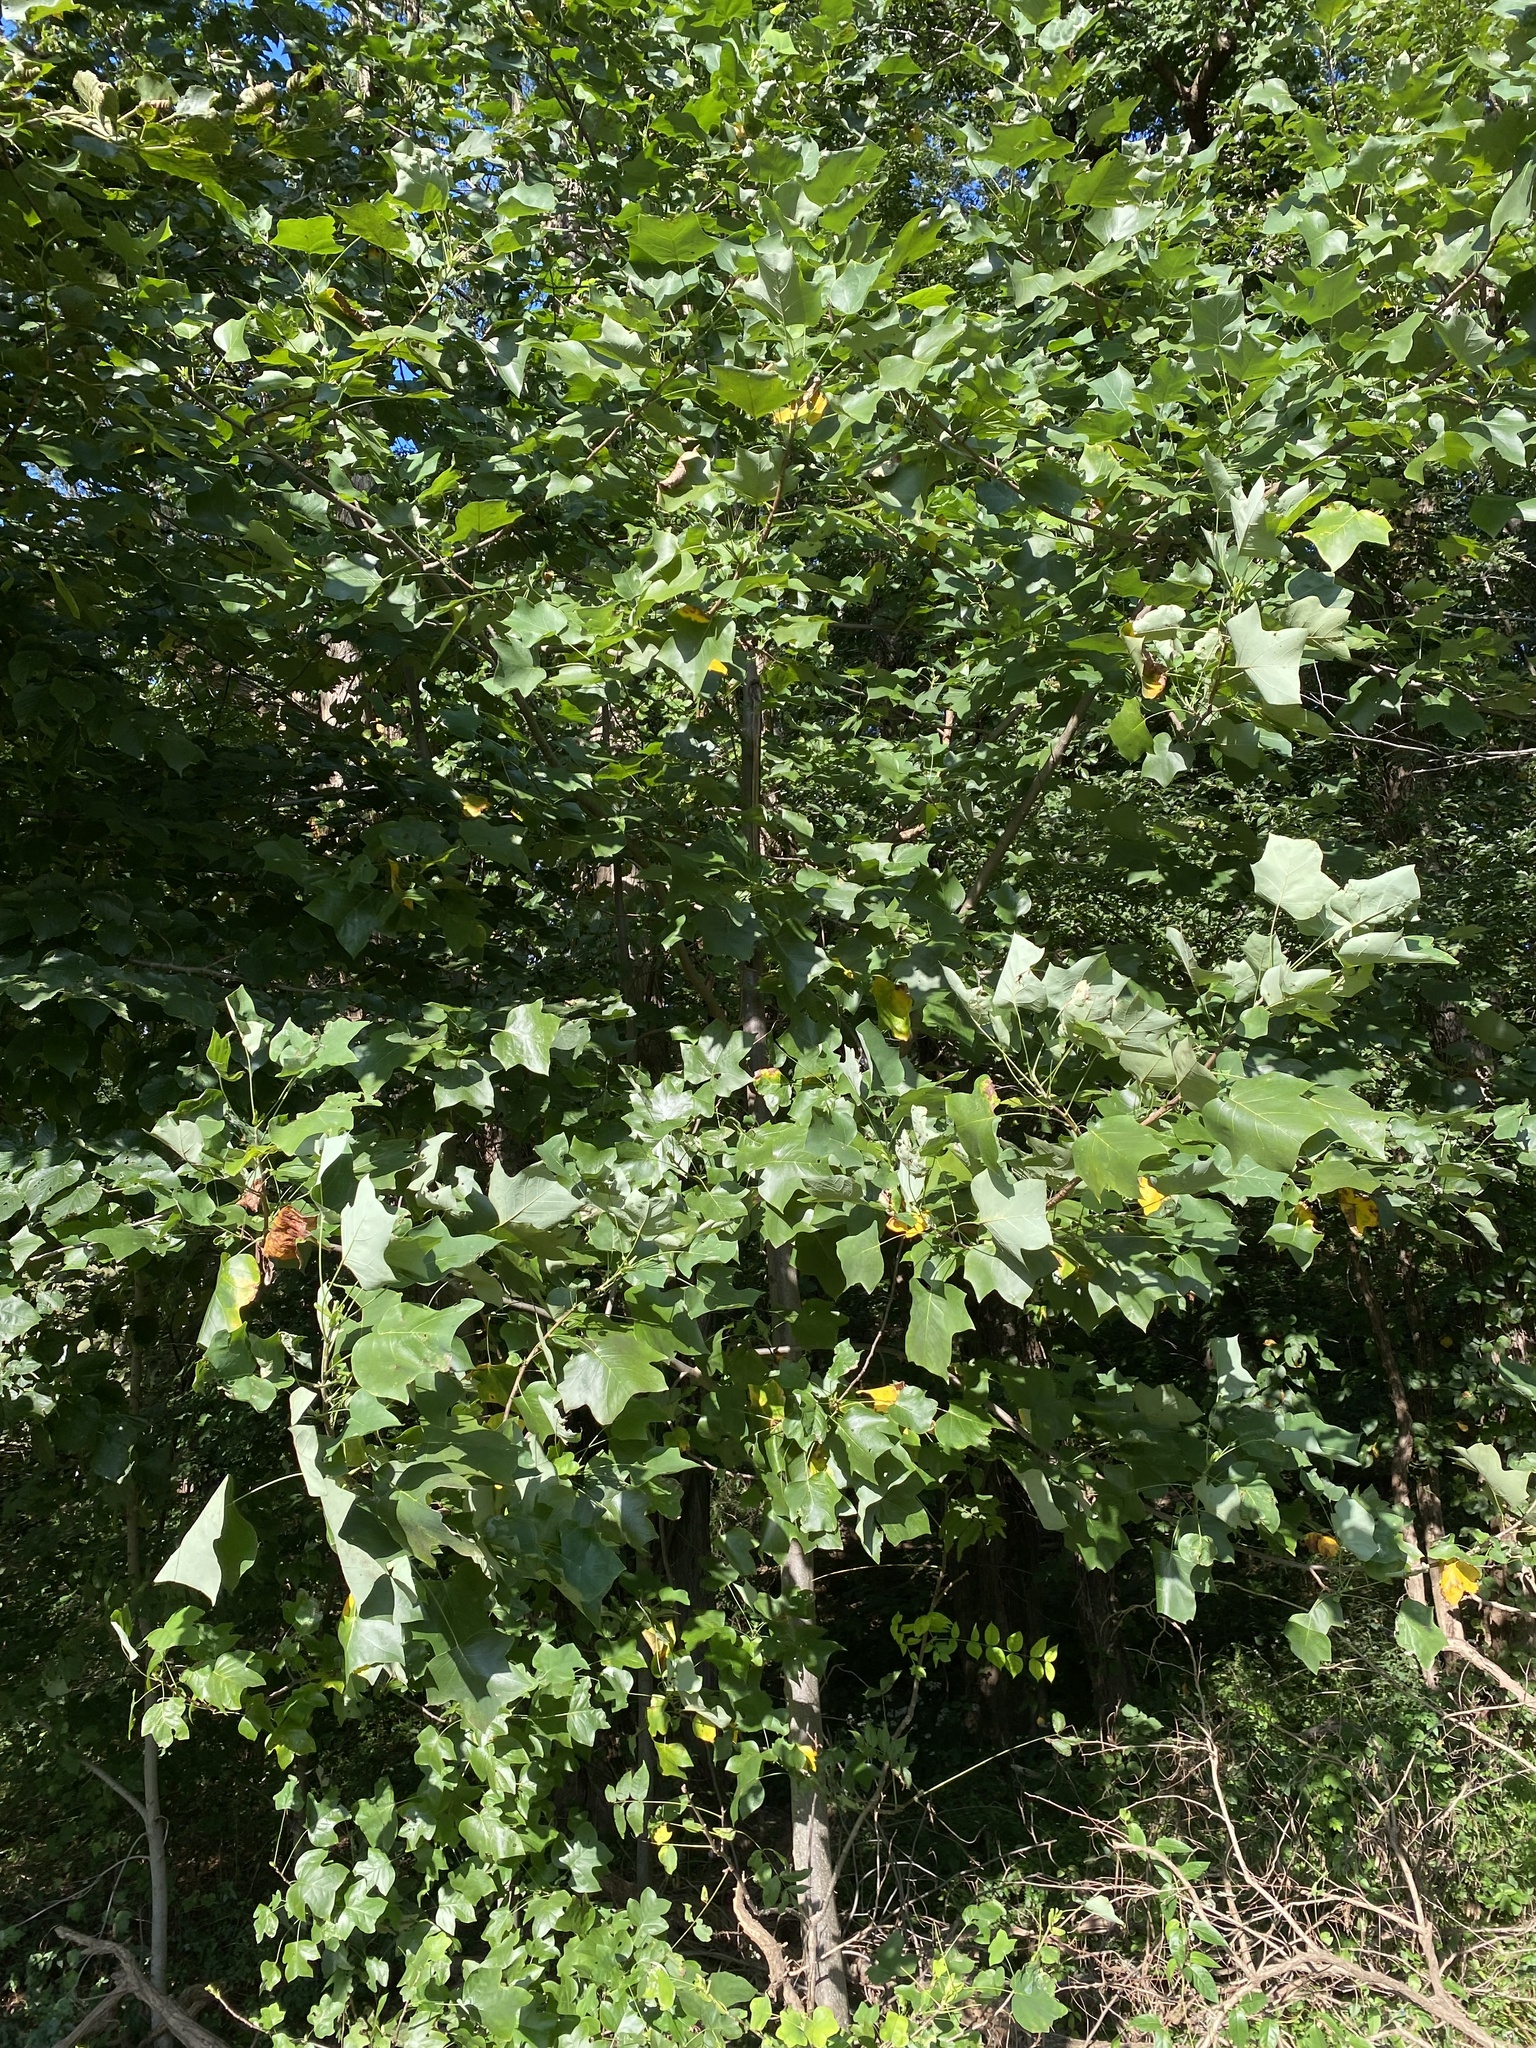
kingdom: Plantae
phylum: Tracheophyta
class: Magnoliopsida
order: Magnoliales
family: Magnoliaceae
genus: Liriodendron
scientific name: Liriodendron tulipifera
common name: Tulip tree
